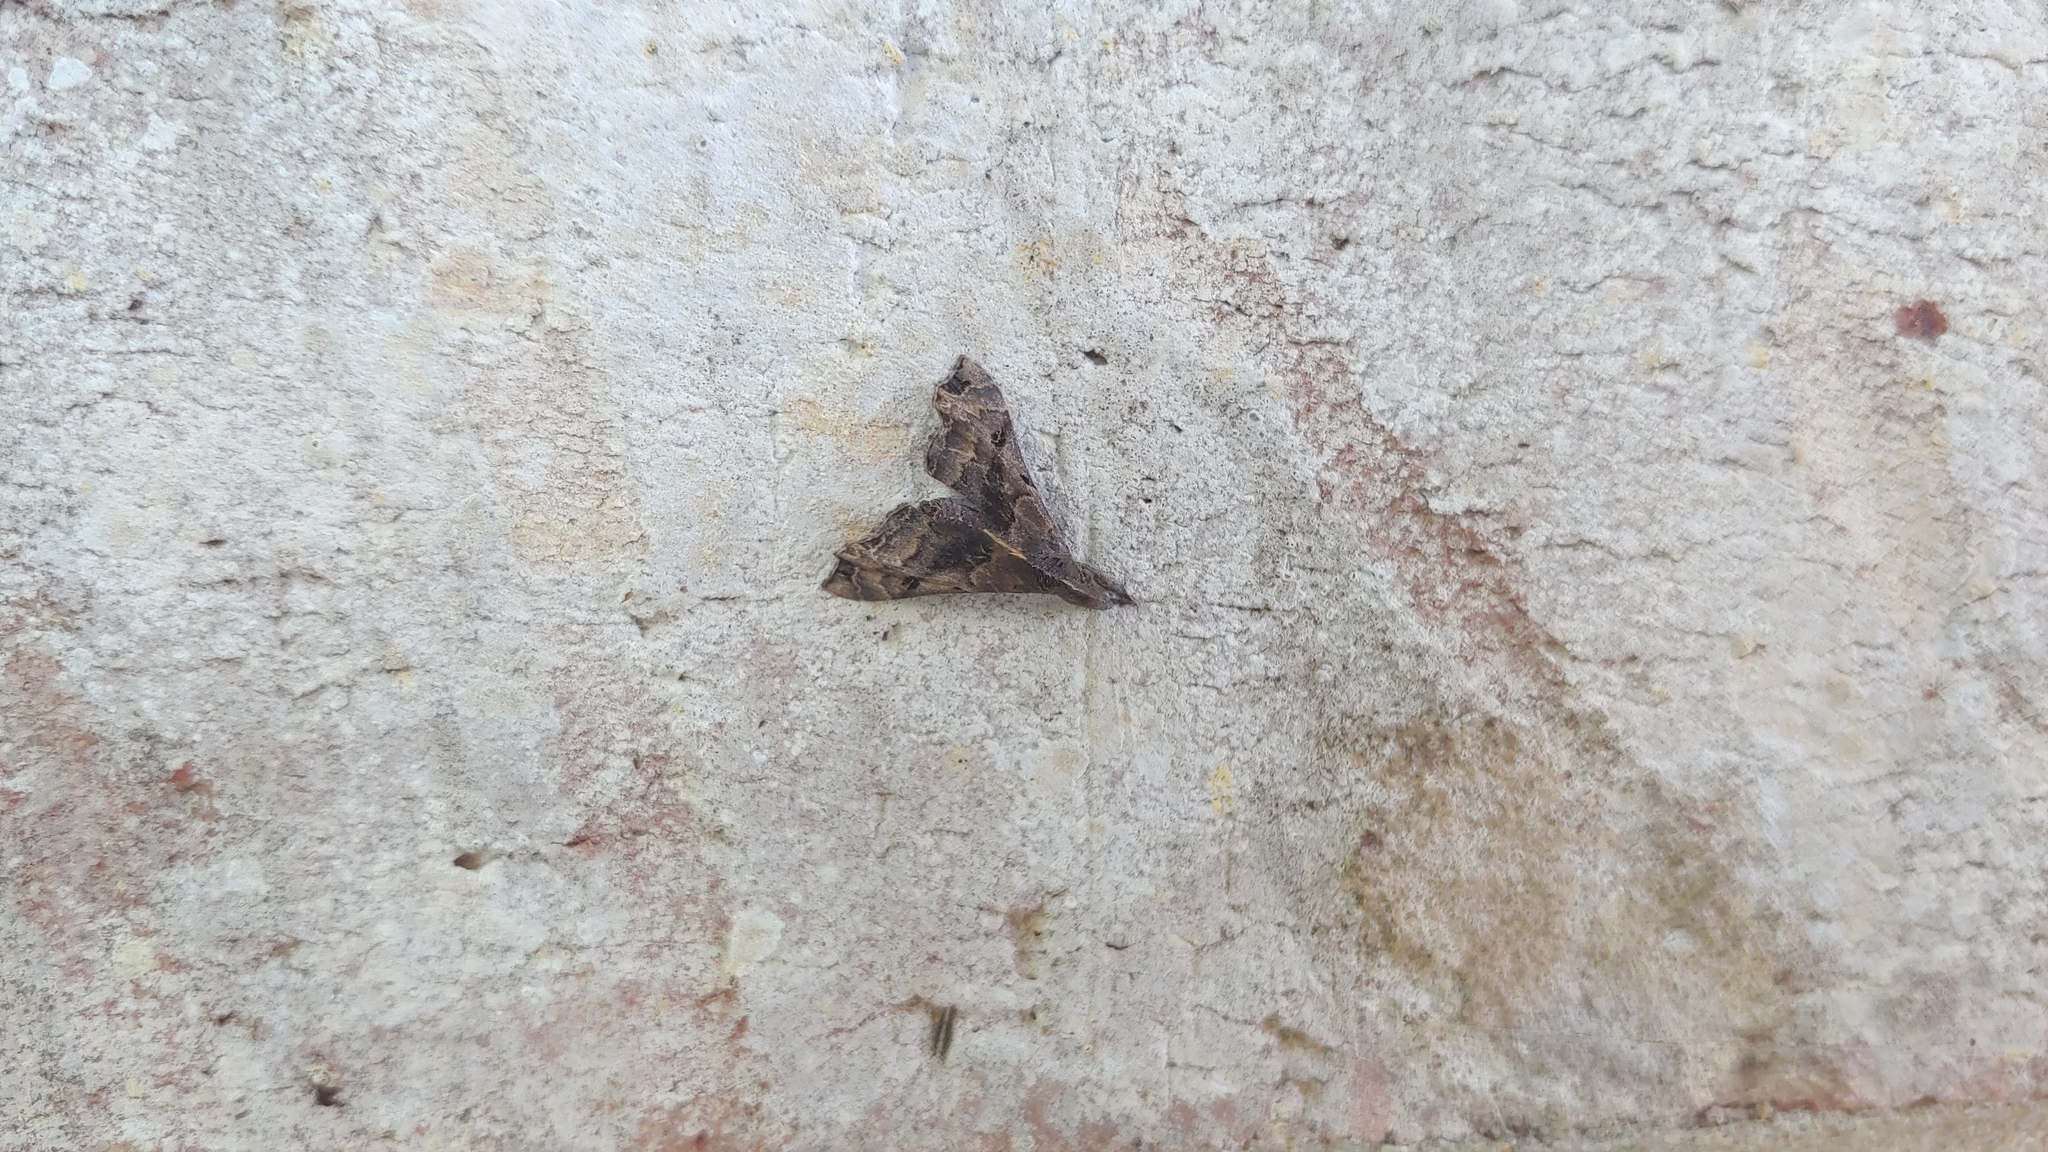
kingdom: Animalia
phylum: Arthropoda
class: Insecta
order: Lepidoptera
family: Erebidae
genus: Palthis
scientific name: Palthis asopialis
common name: Faint-spotted palthis moth
